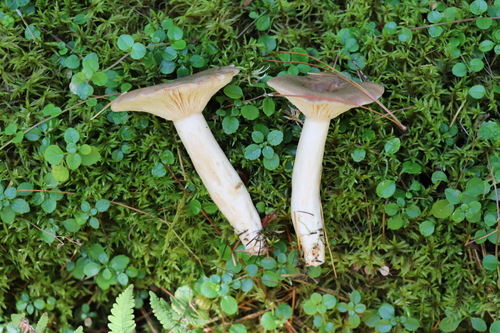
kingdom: Fungi
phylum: Basidiomycota
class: Agaricomycetes
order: Russulales
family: Russulaceae
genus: Lactarius
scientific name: Lactarius trivialis
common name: Tacked milkcap
